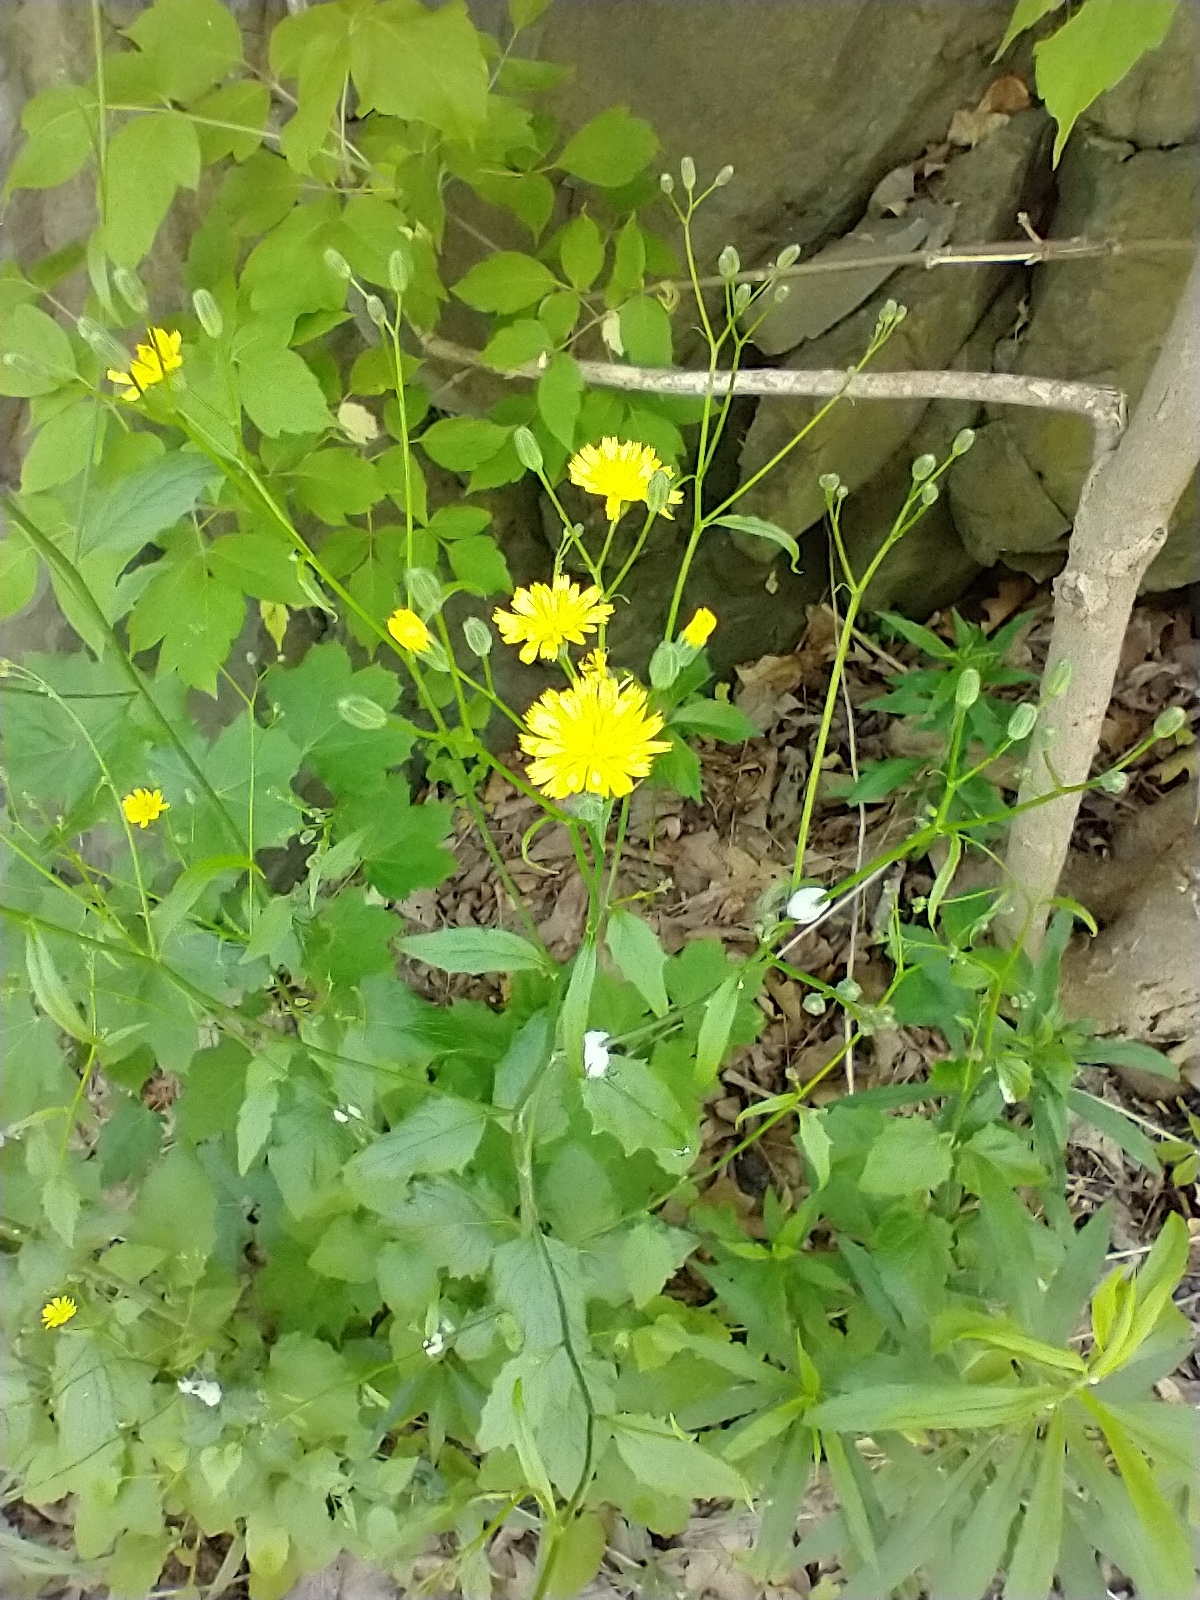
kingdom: Plantae
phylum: Tracheophyta
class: Magnoliopsida
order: Asterales
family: Asteraceae
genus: Lapsana
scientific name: Lapsana communis
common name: Nipplewort
